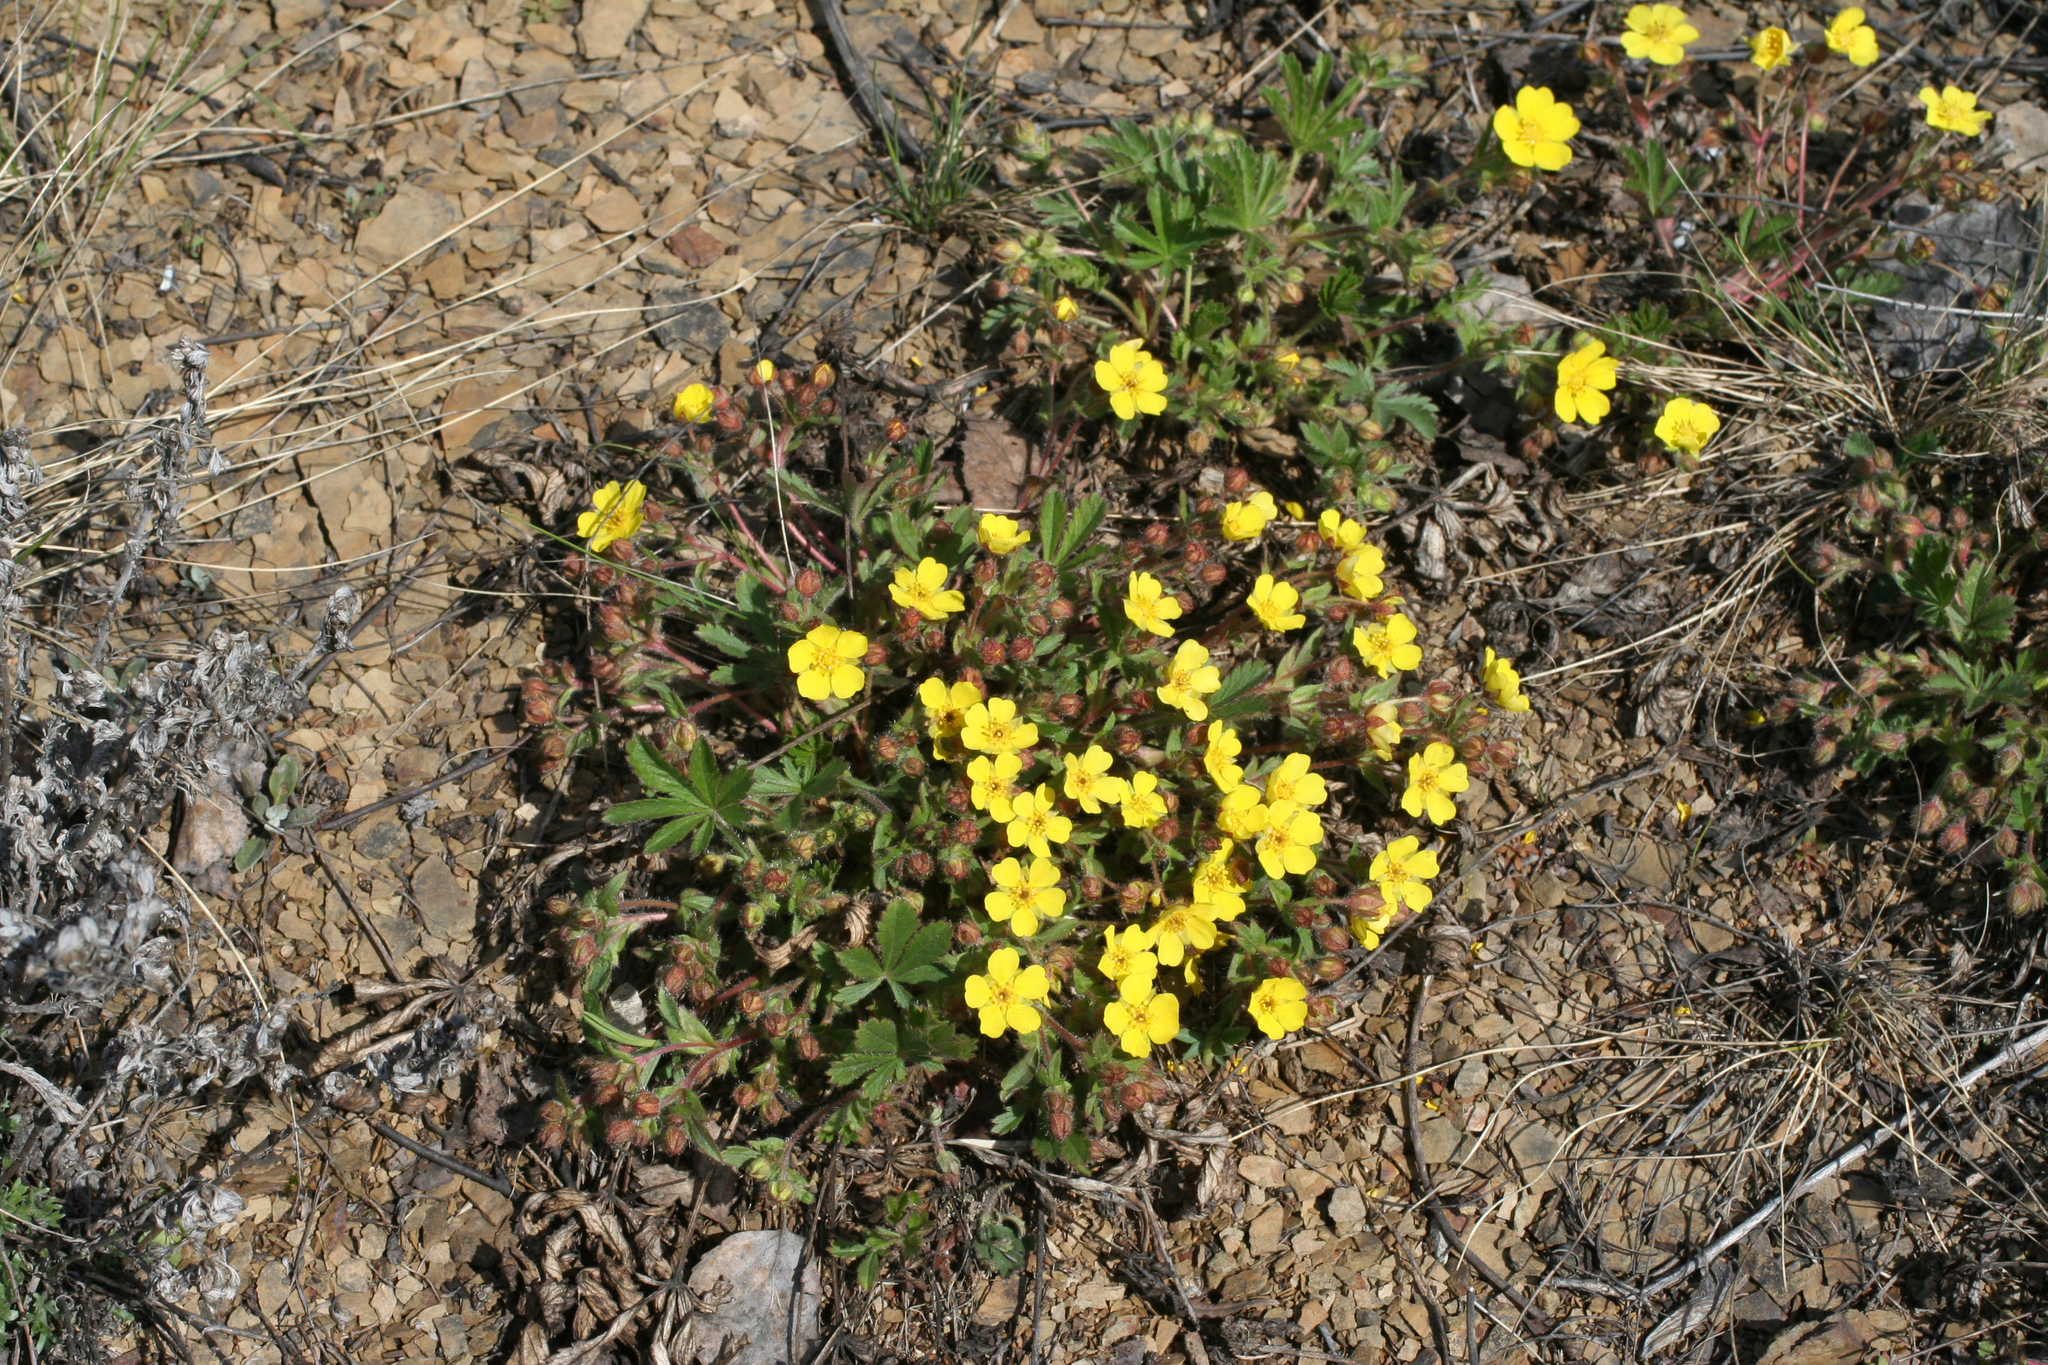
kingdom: Plantae
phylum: Tracheophyta
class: Magnoliopsida
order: Rosales
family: Rosaceae
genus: Potentilla
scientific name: Potentilla humifusa
